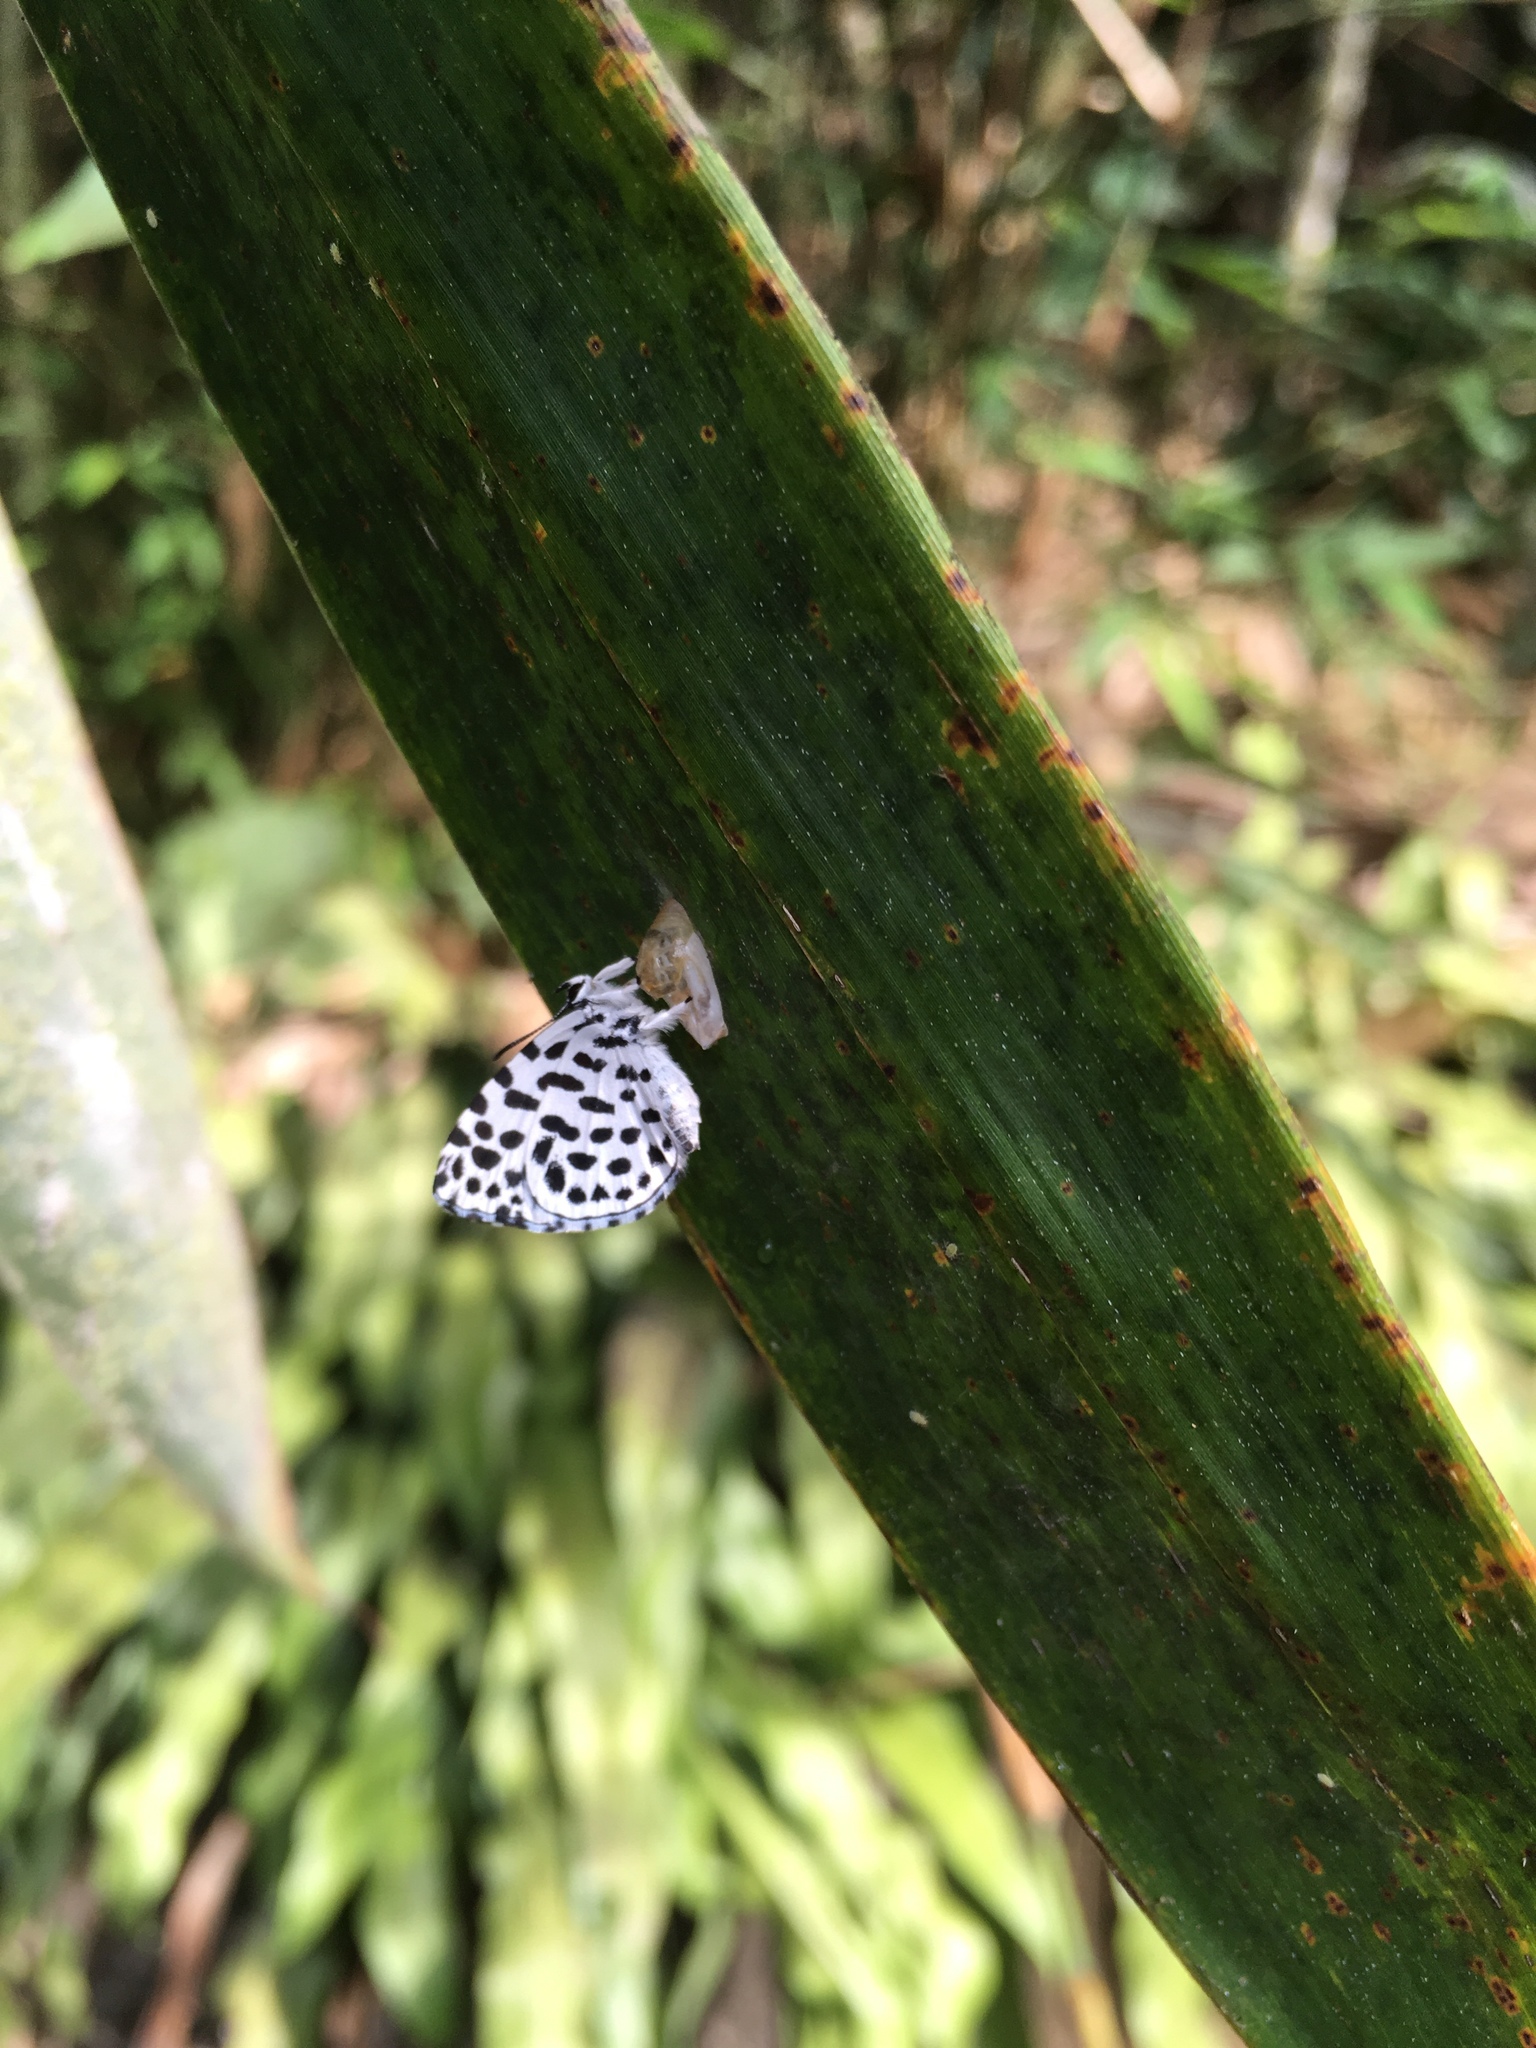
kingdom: Animalia
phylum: Arthropoda
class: Insecta
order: Lepidoptera
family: Lycaenidae
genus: Taraka
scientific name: Taraka hamada
